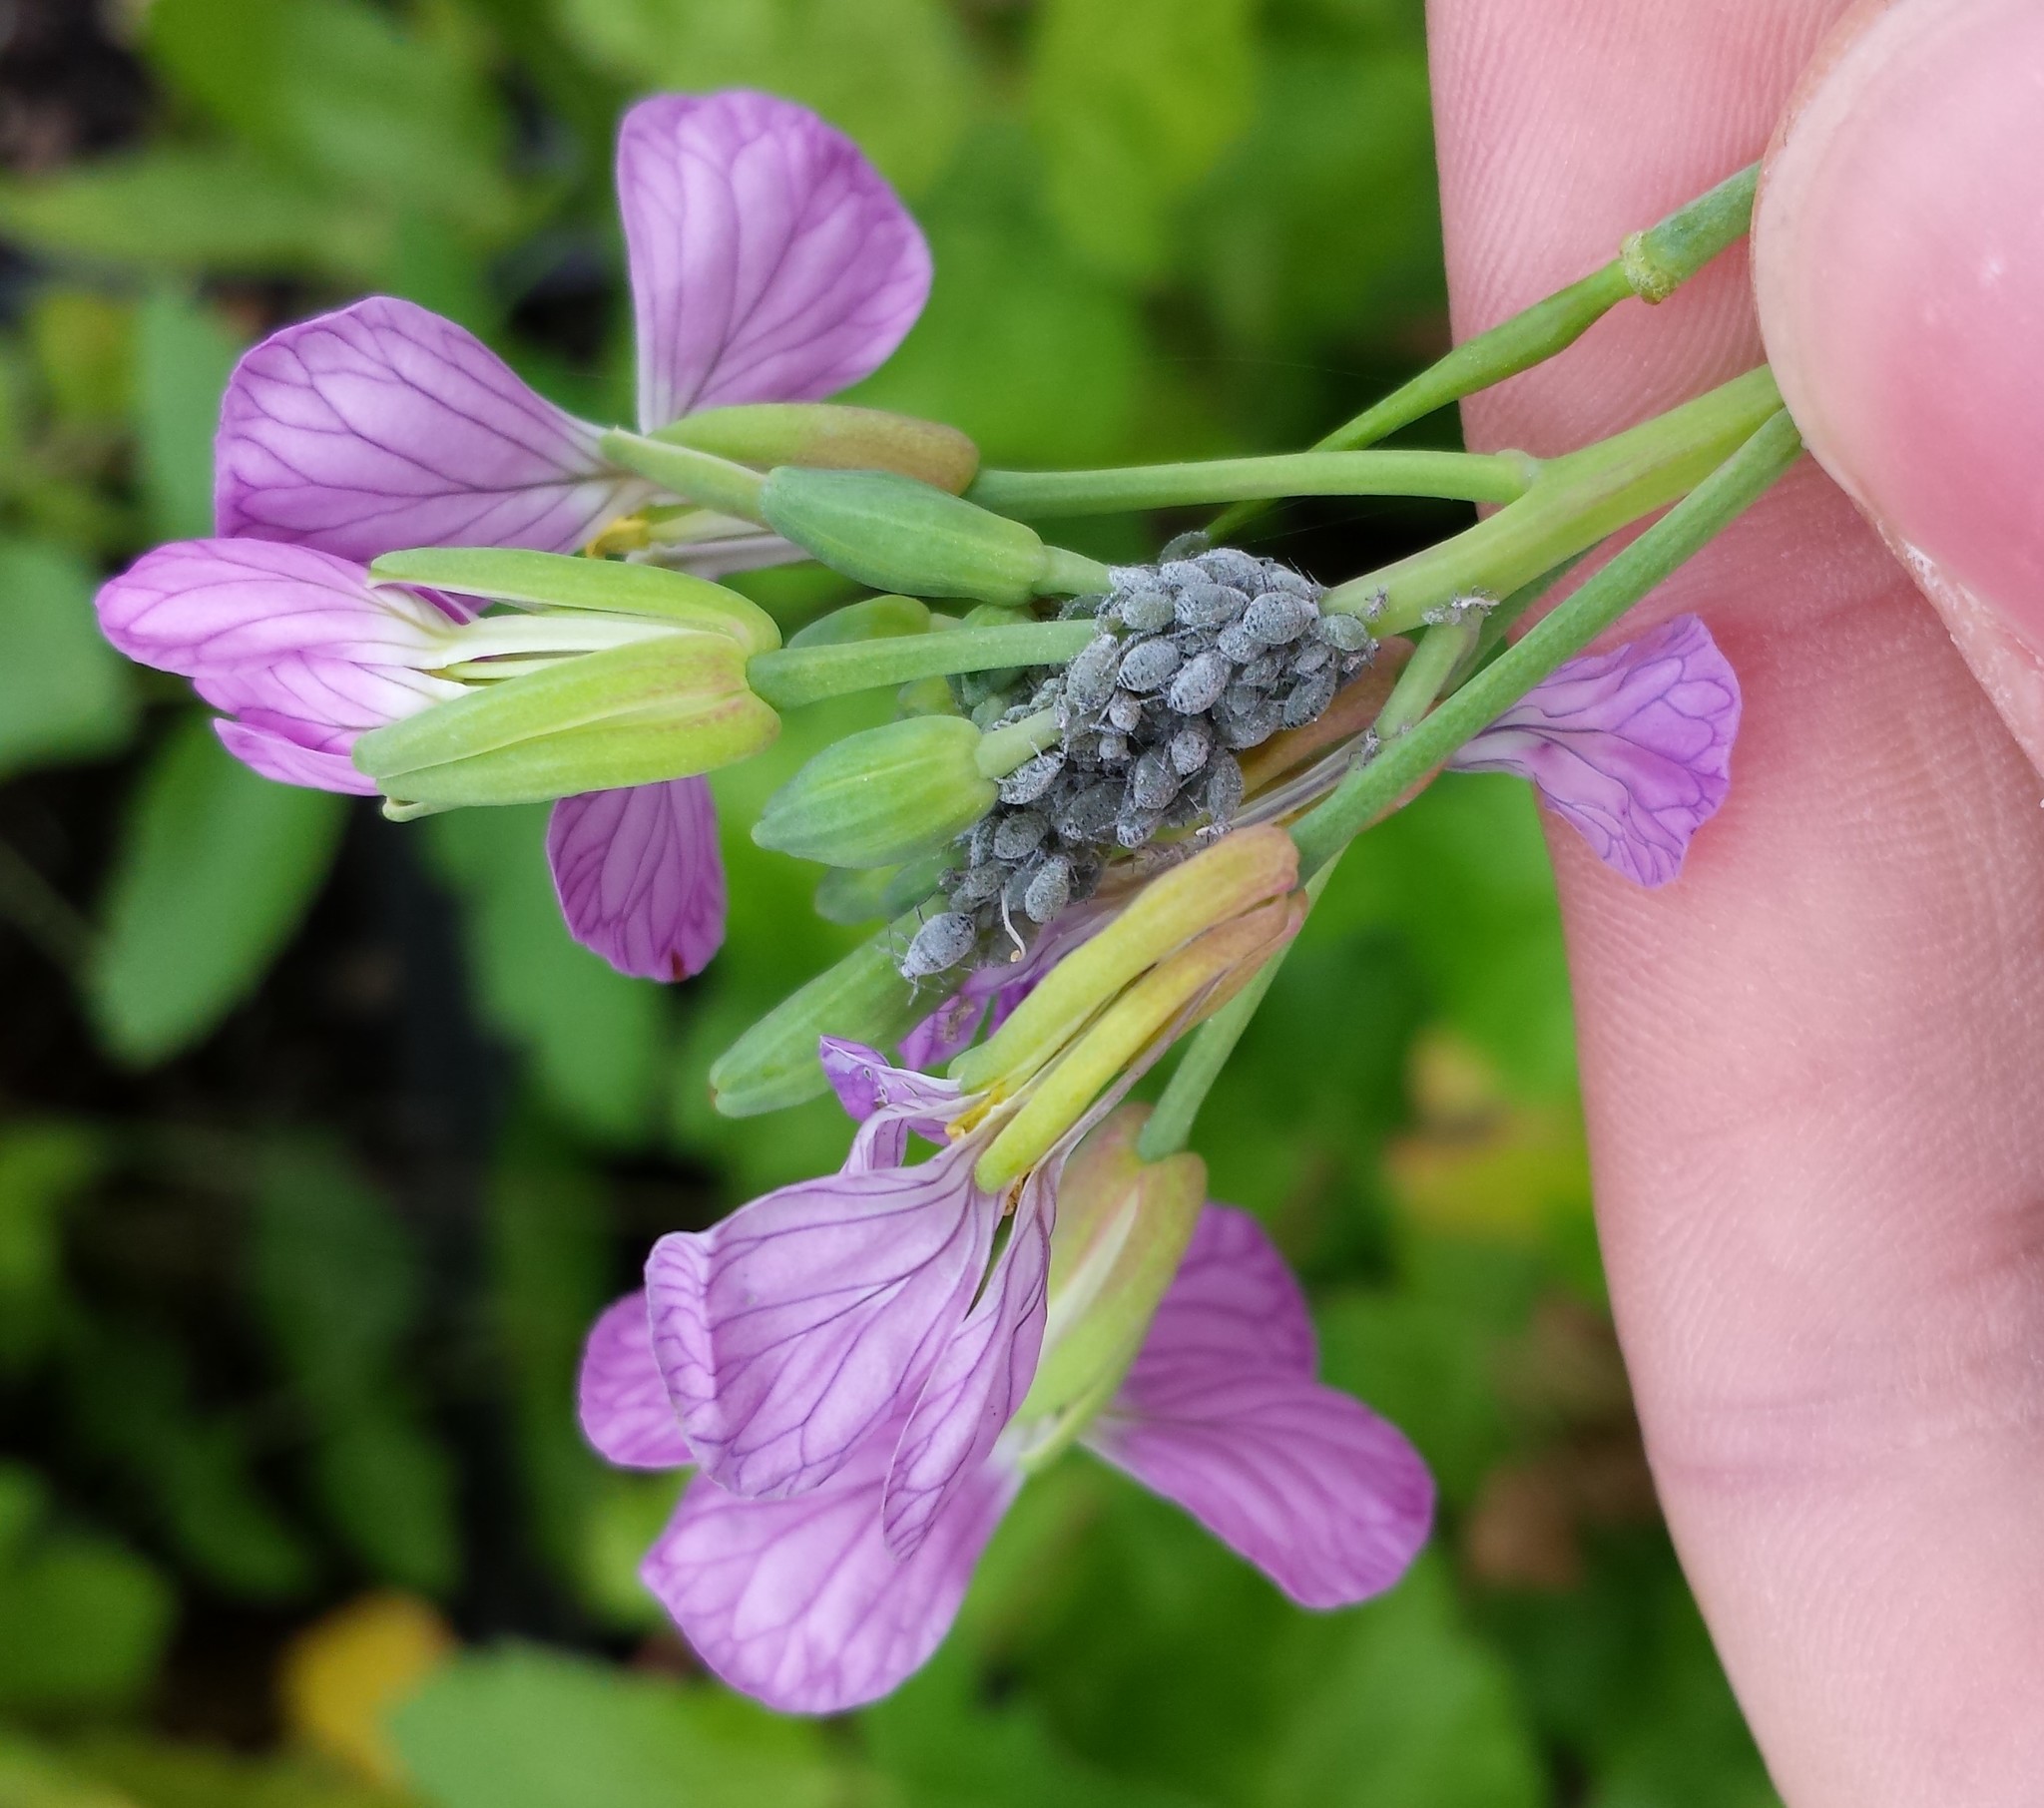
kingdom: Animalia
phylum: Arthropoda
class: Insecta
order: Hemiptera
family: Aphididae
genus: Brevicoryne
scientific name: Brevicoryne brassicae
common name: Cabbage aphid
